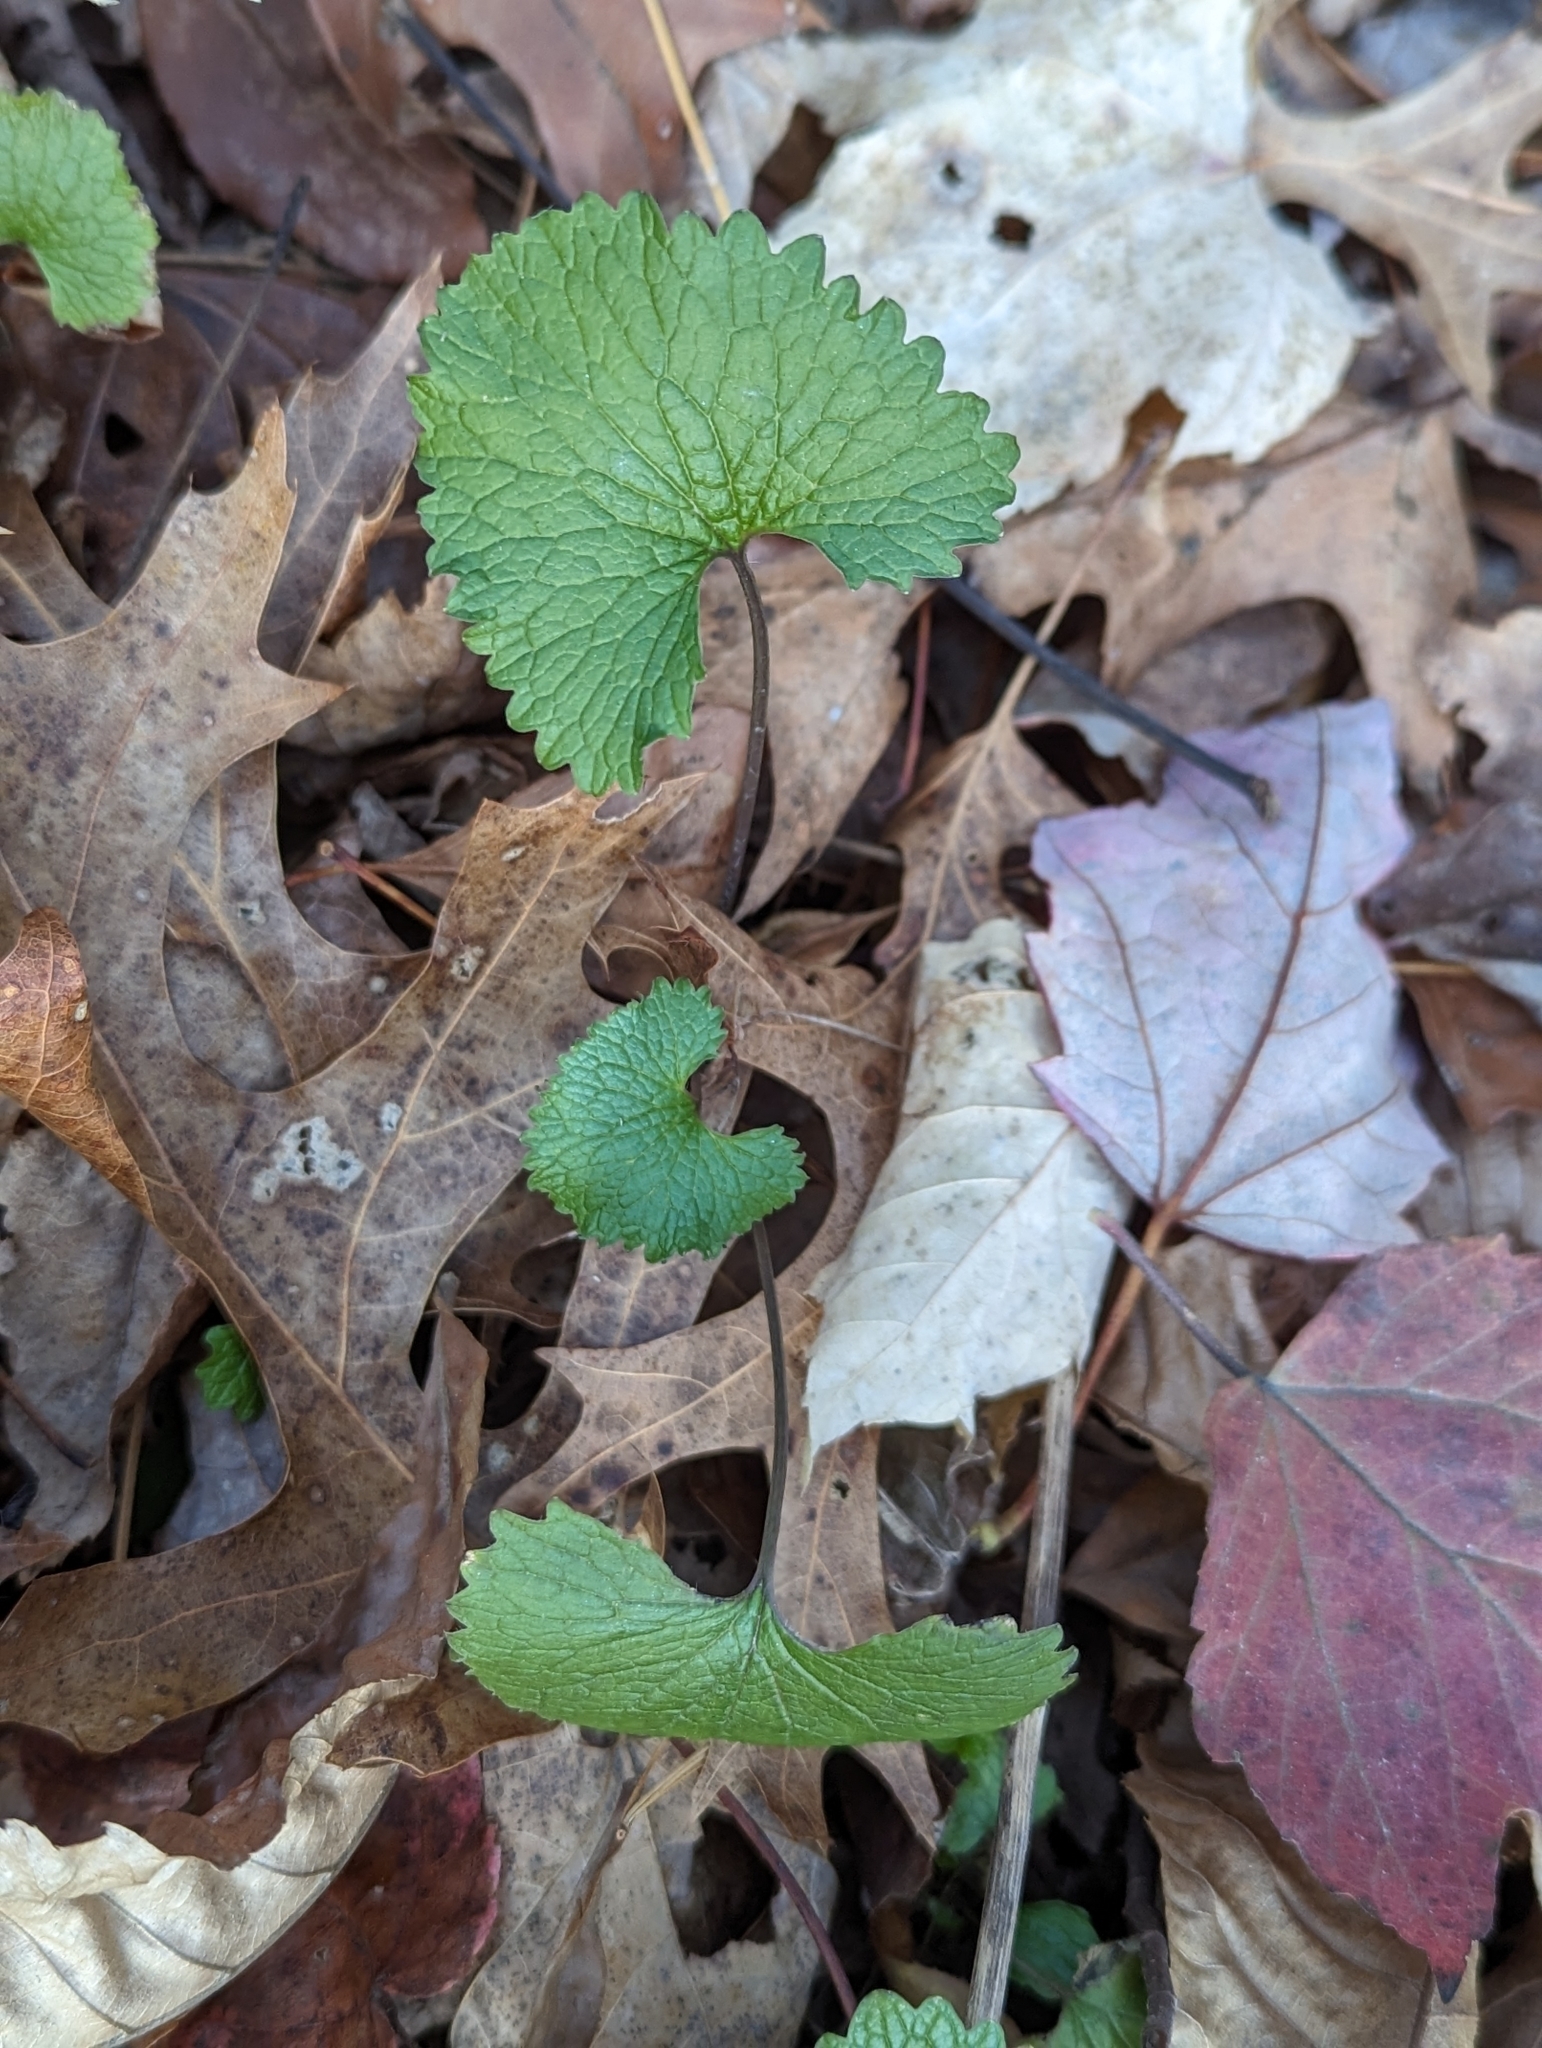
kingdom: Plantae
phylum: Tracheophyta
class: Magnoliopsida
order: Brassicales
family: Brassicaceae
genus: Alliaria
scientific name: Alliaria petiolata
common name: Garlic mustard
